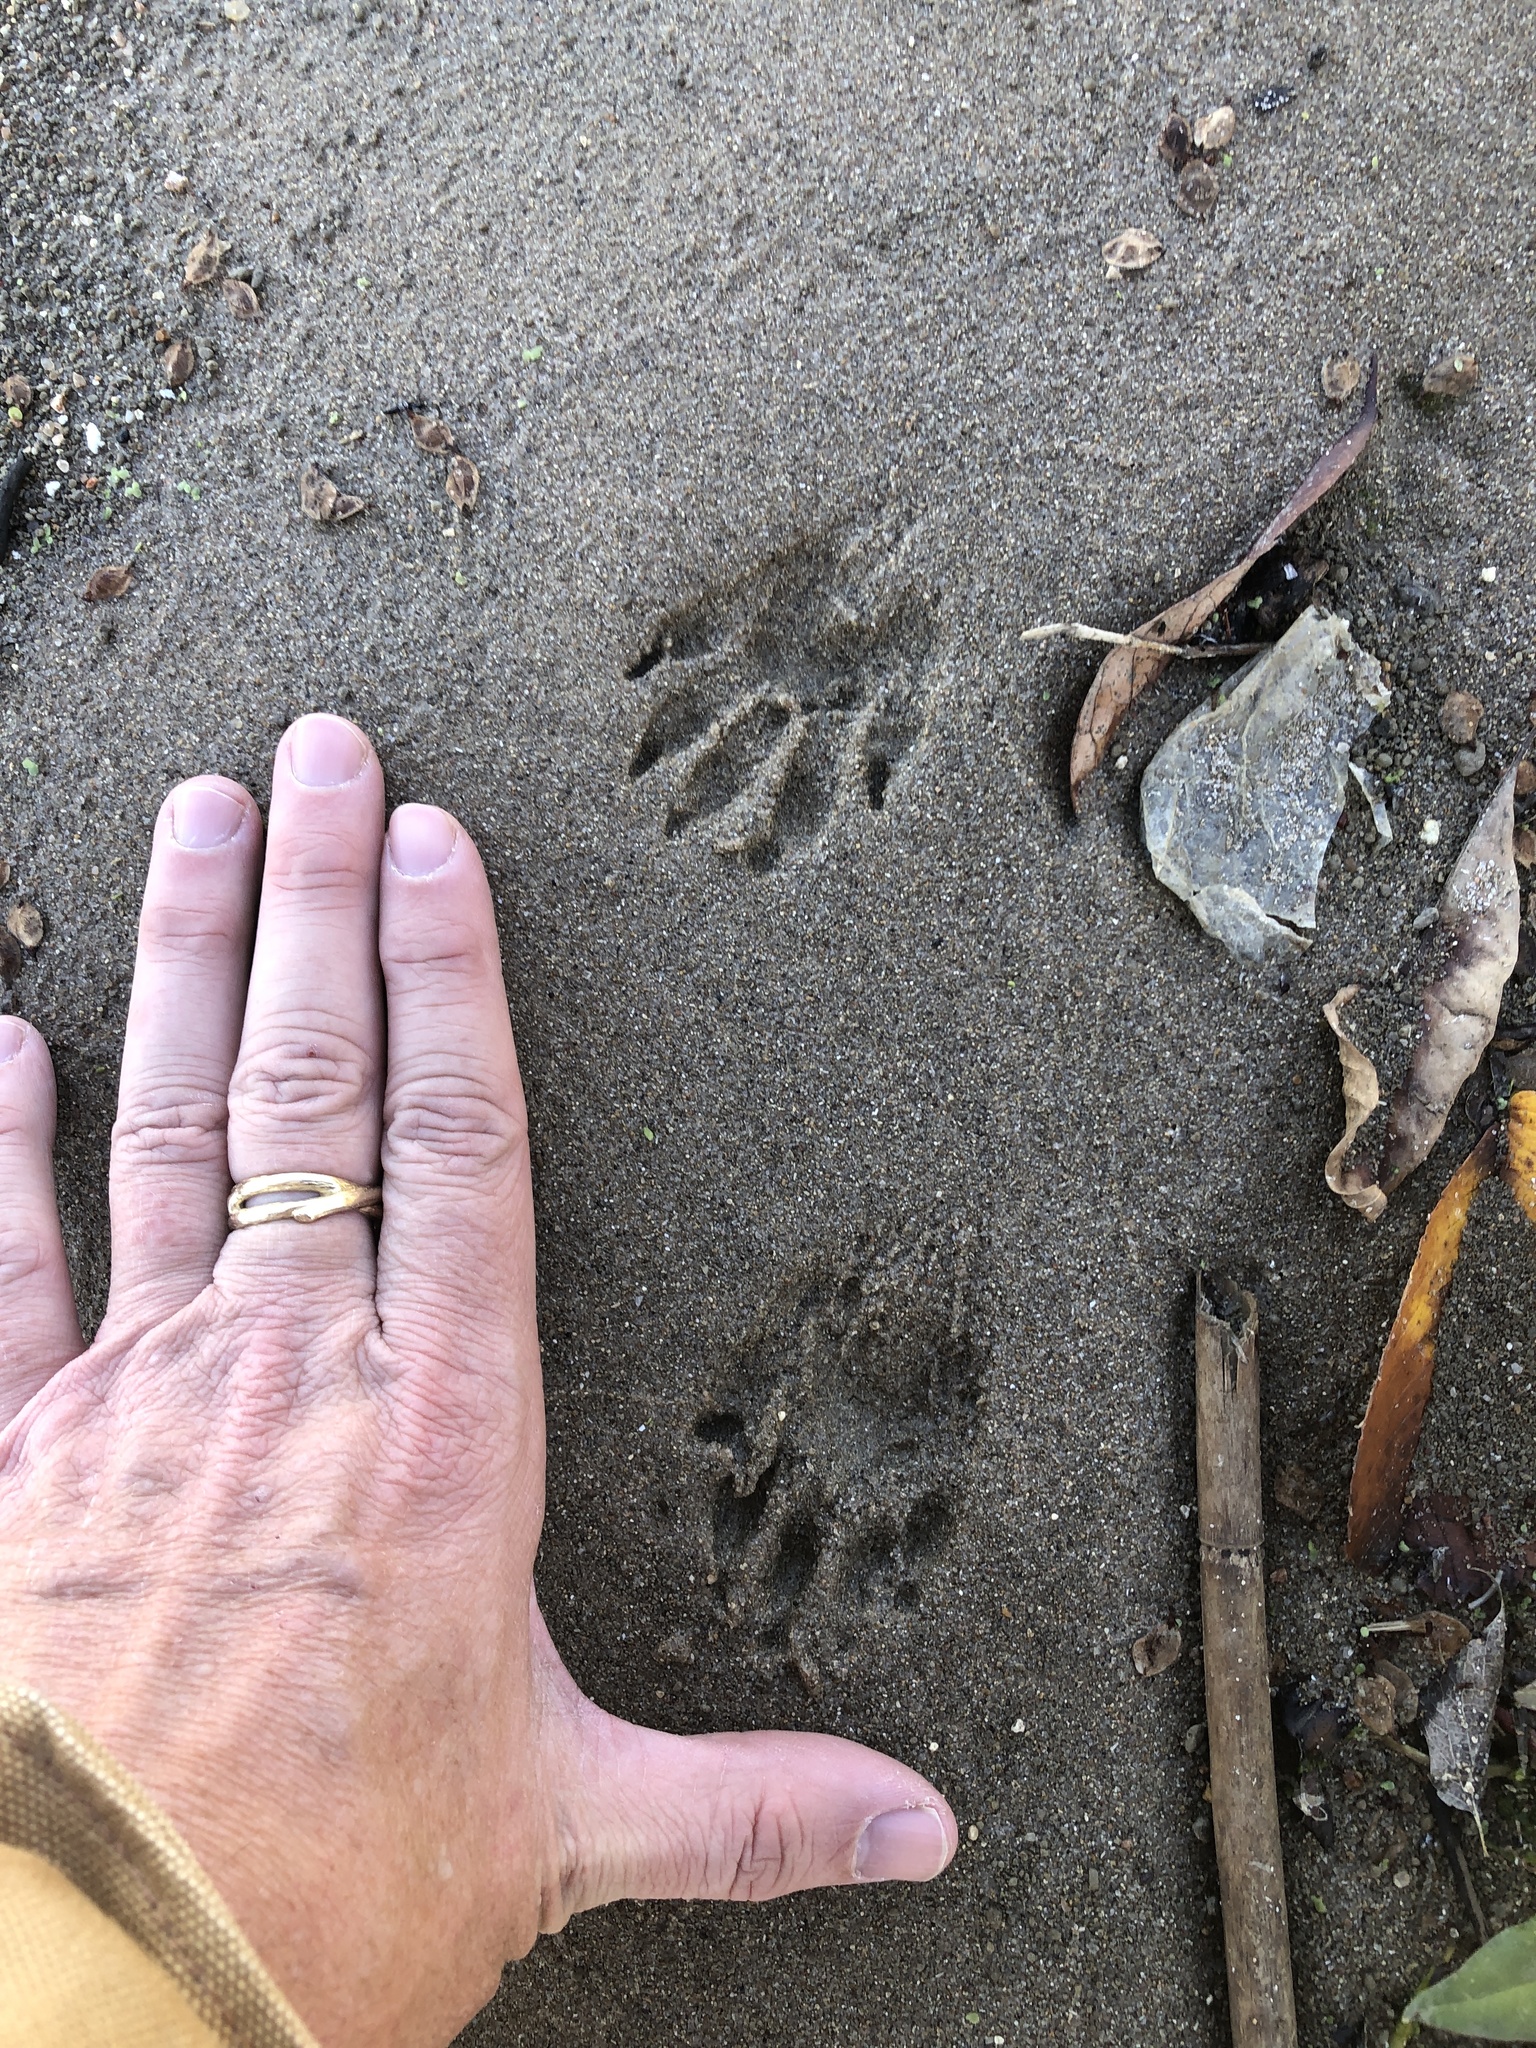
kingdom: Animalia
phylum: Chordata
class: Mammalia
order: Carnivora
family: Procyonidae
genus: Procyon
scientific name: Procyon lotor
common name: Raccoon
